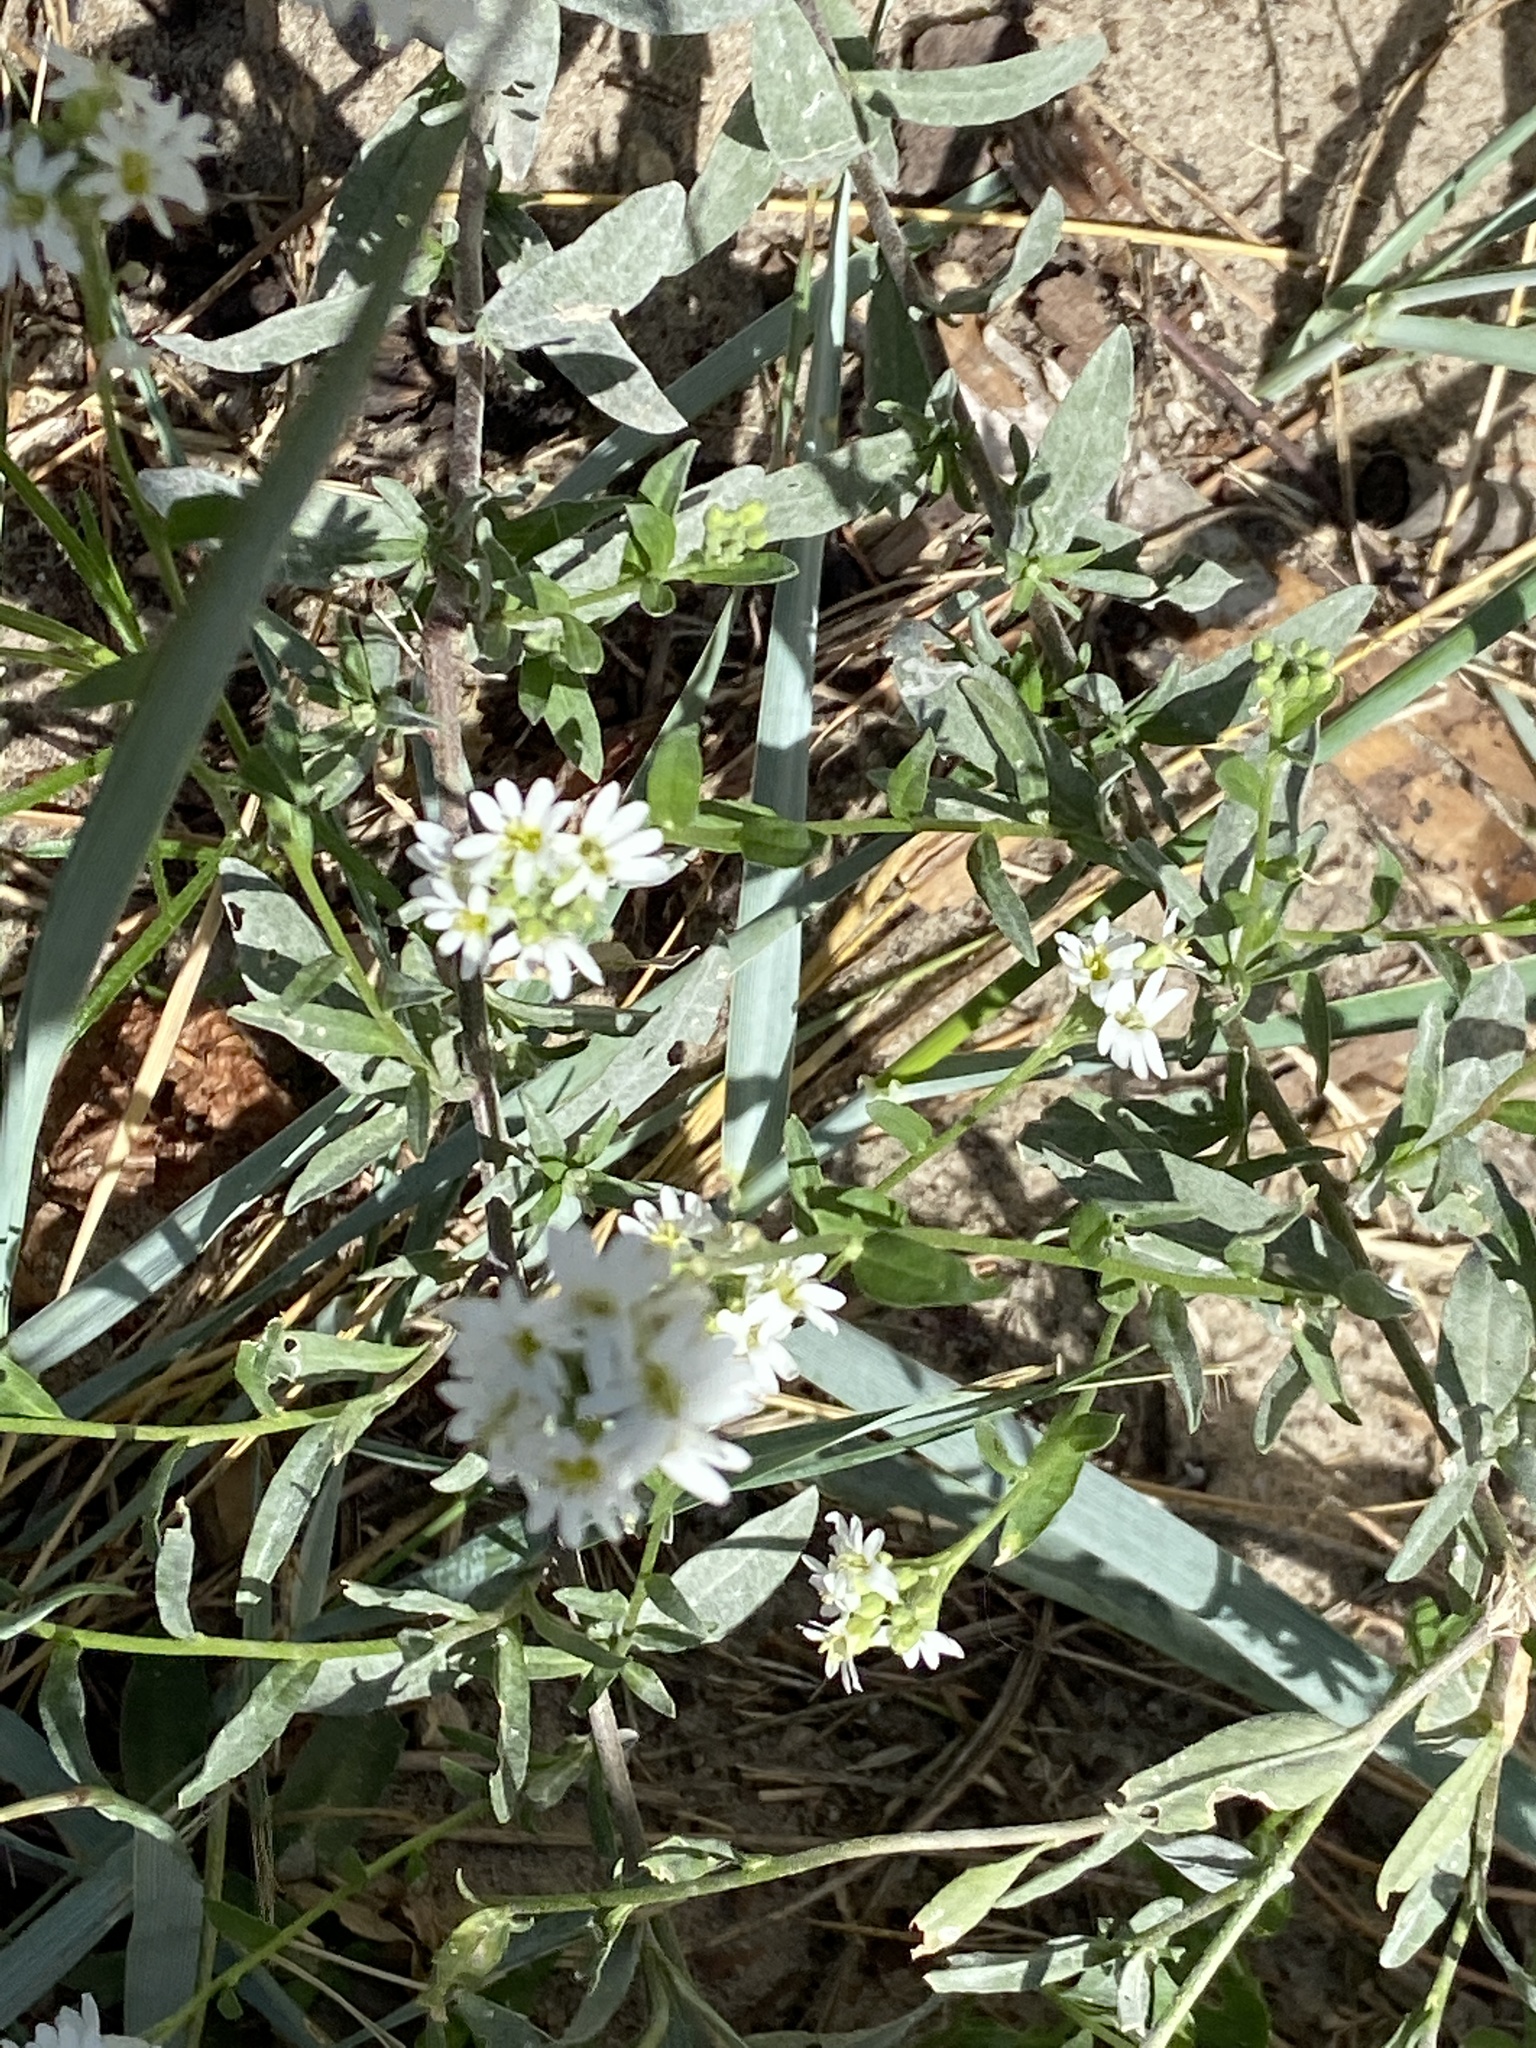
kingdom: Plantae
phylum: Tracheophyta
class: Magnoliopsida
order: Brassicales
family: Brassicaceae
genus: Berteroa
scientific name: Berteroa incana
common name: Hoary alison
